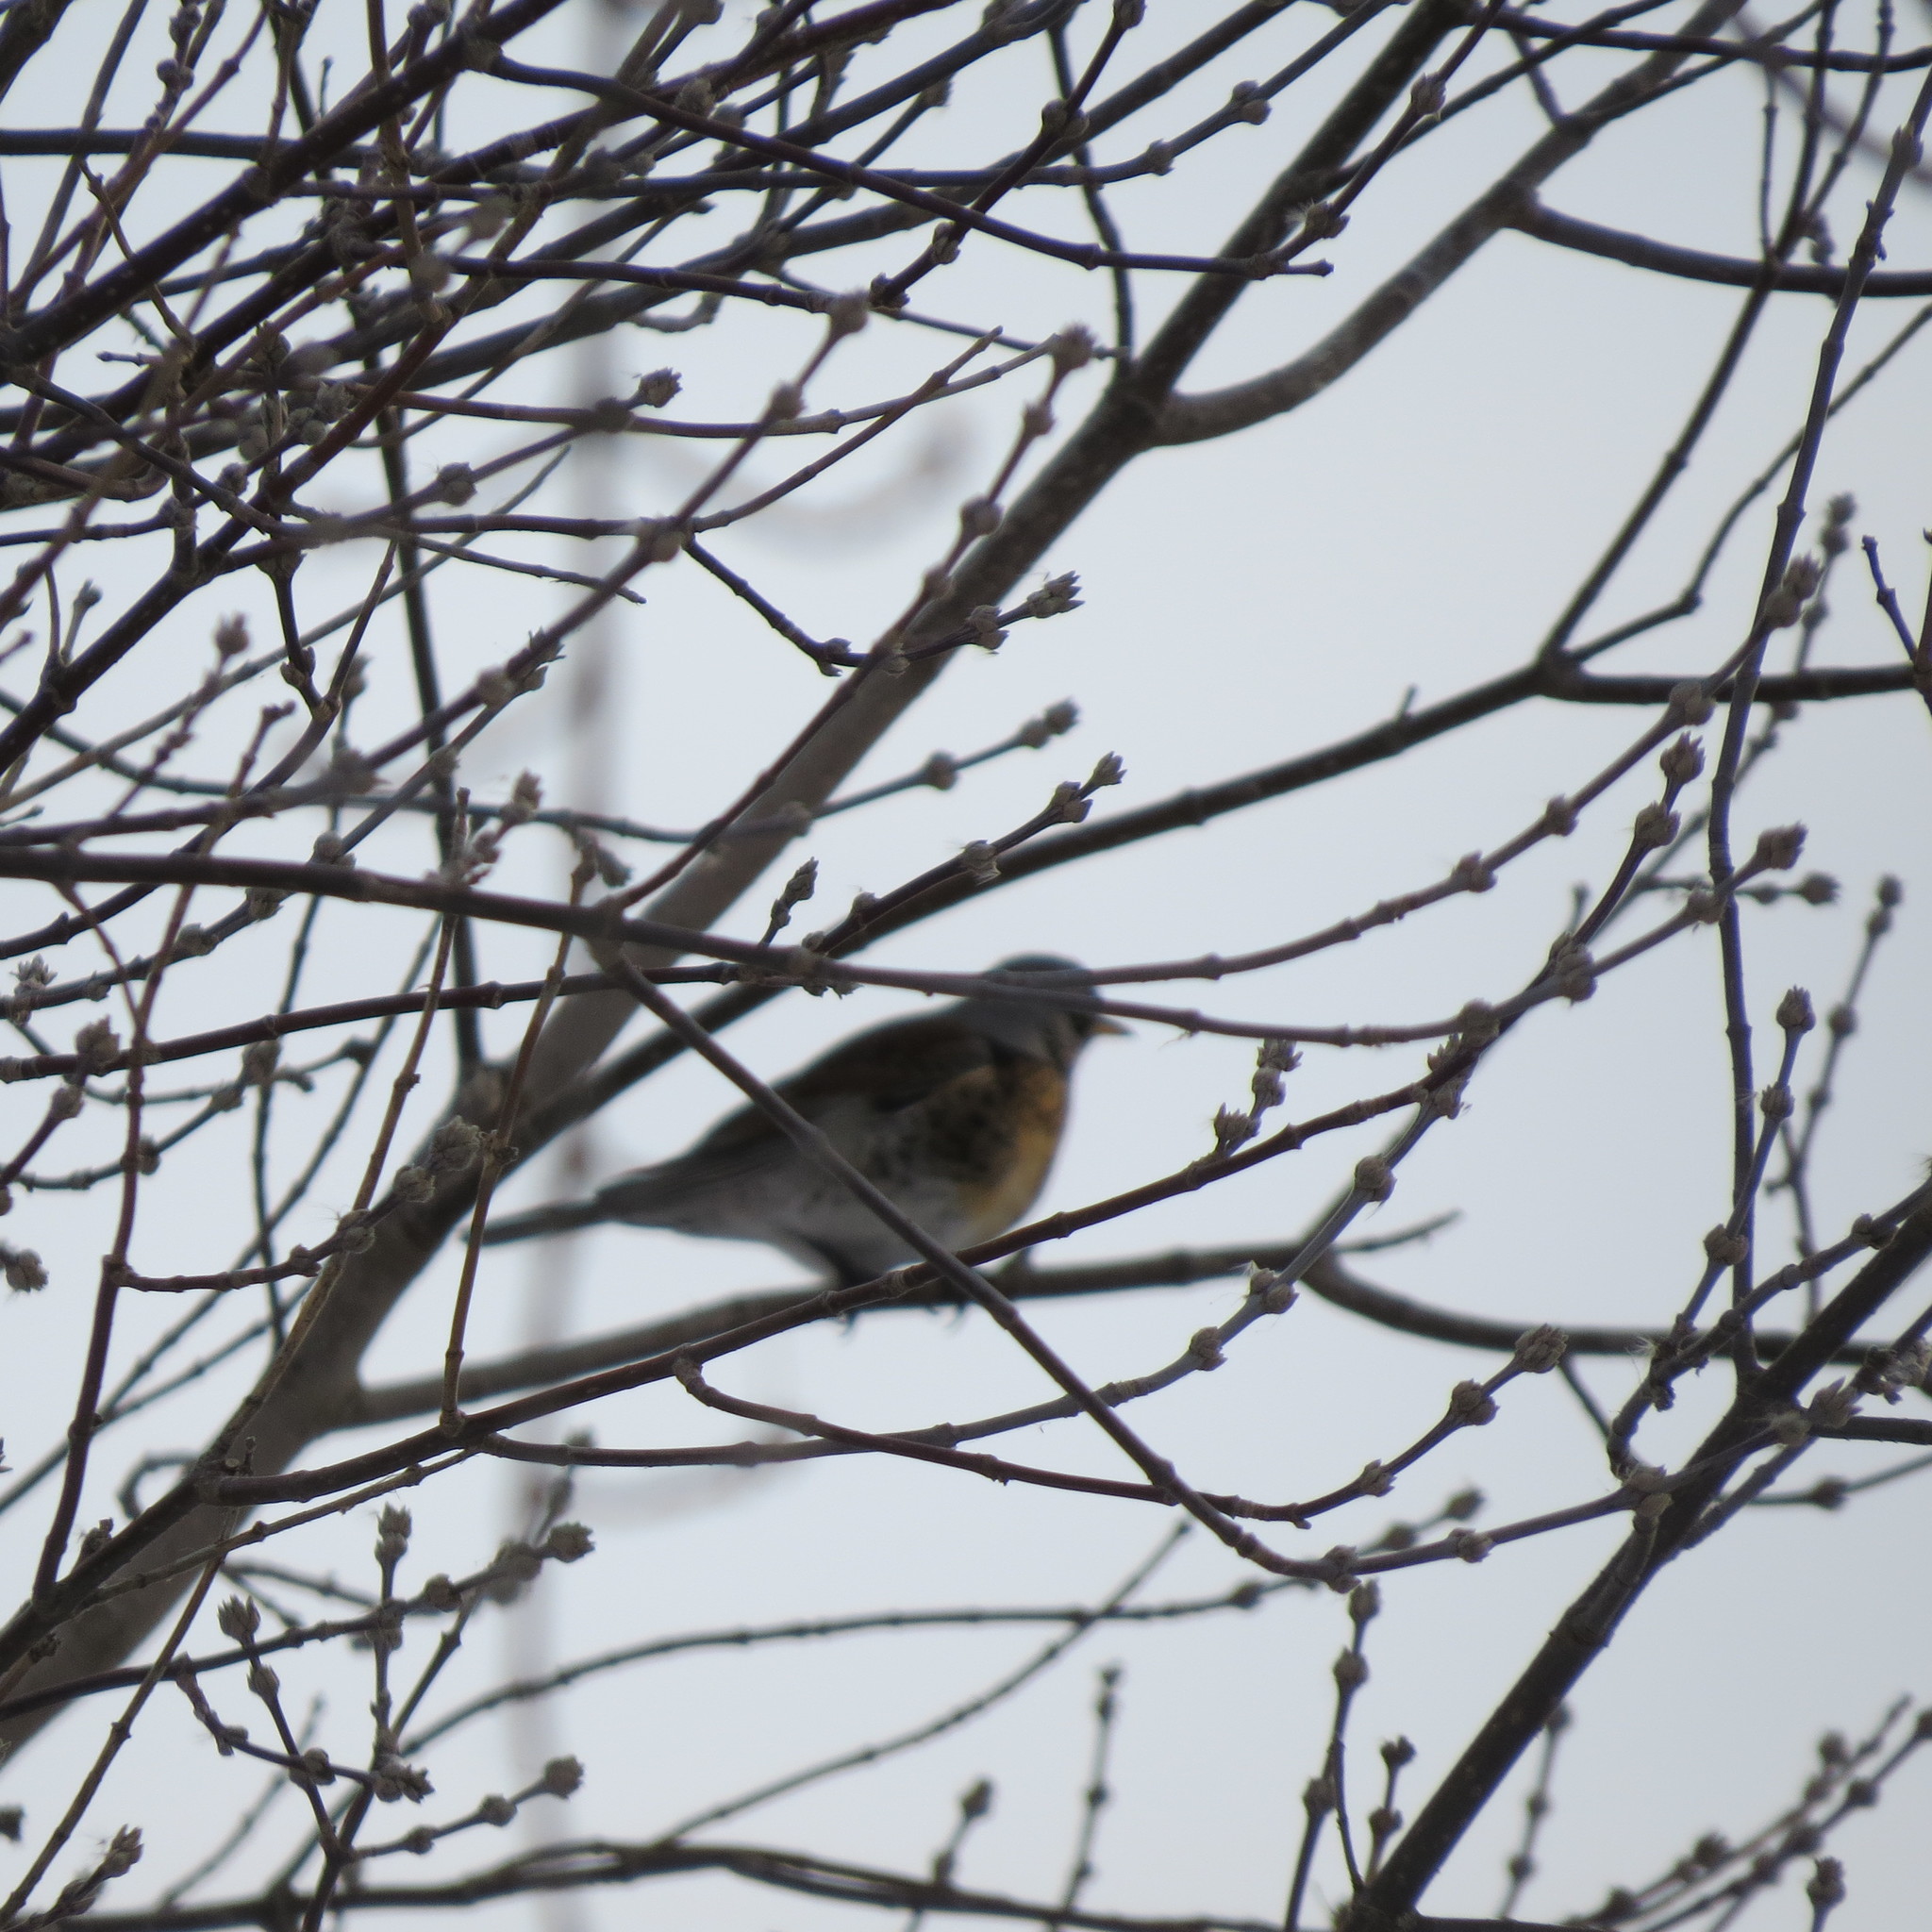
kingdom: Animalia
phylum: Chordata
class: Aves
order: Passeriformes
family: Turdidae
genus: Turdus
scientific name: Turdus pilaris
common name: Fieldfare
